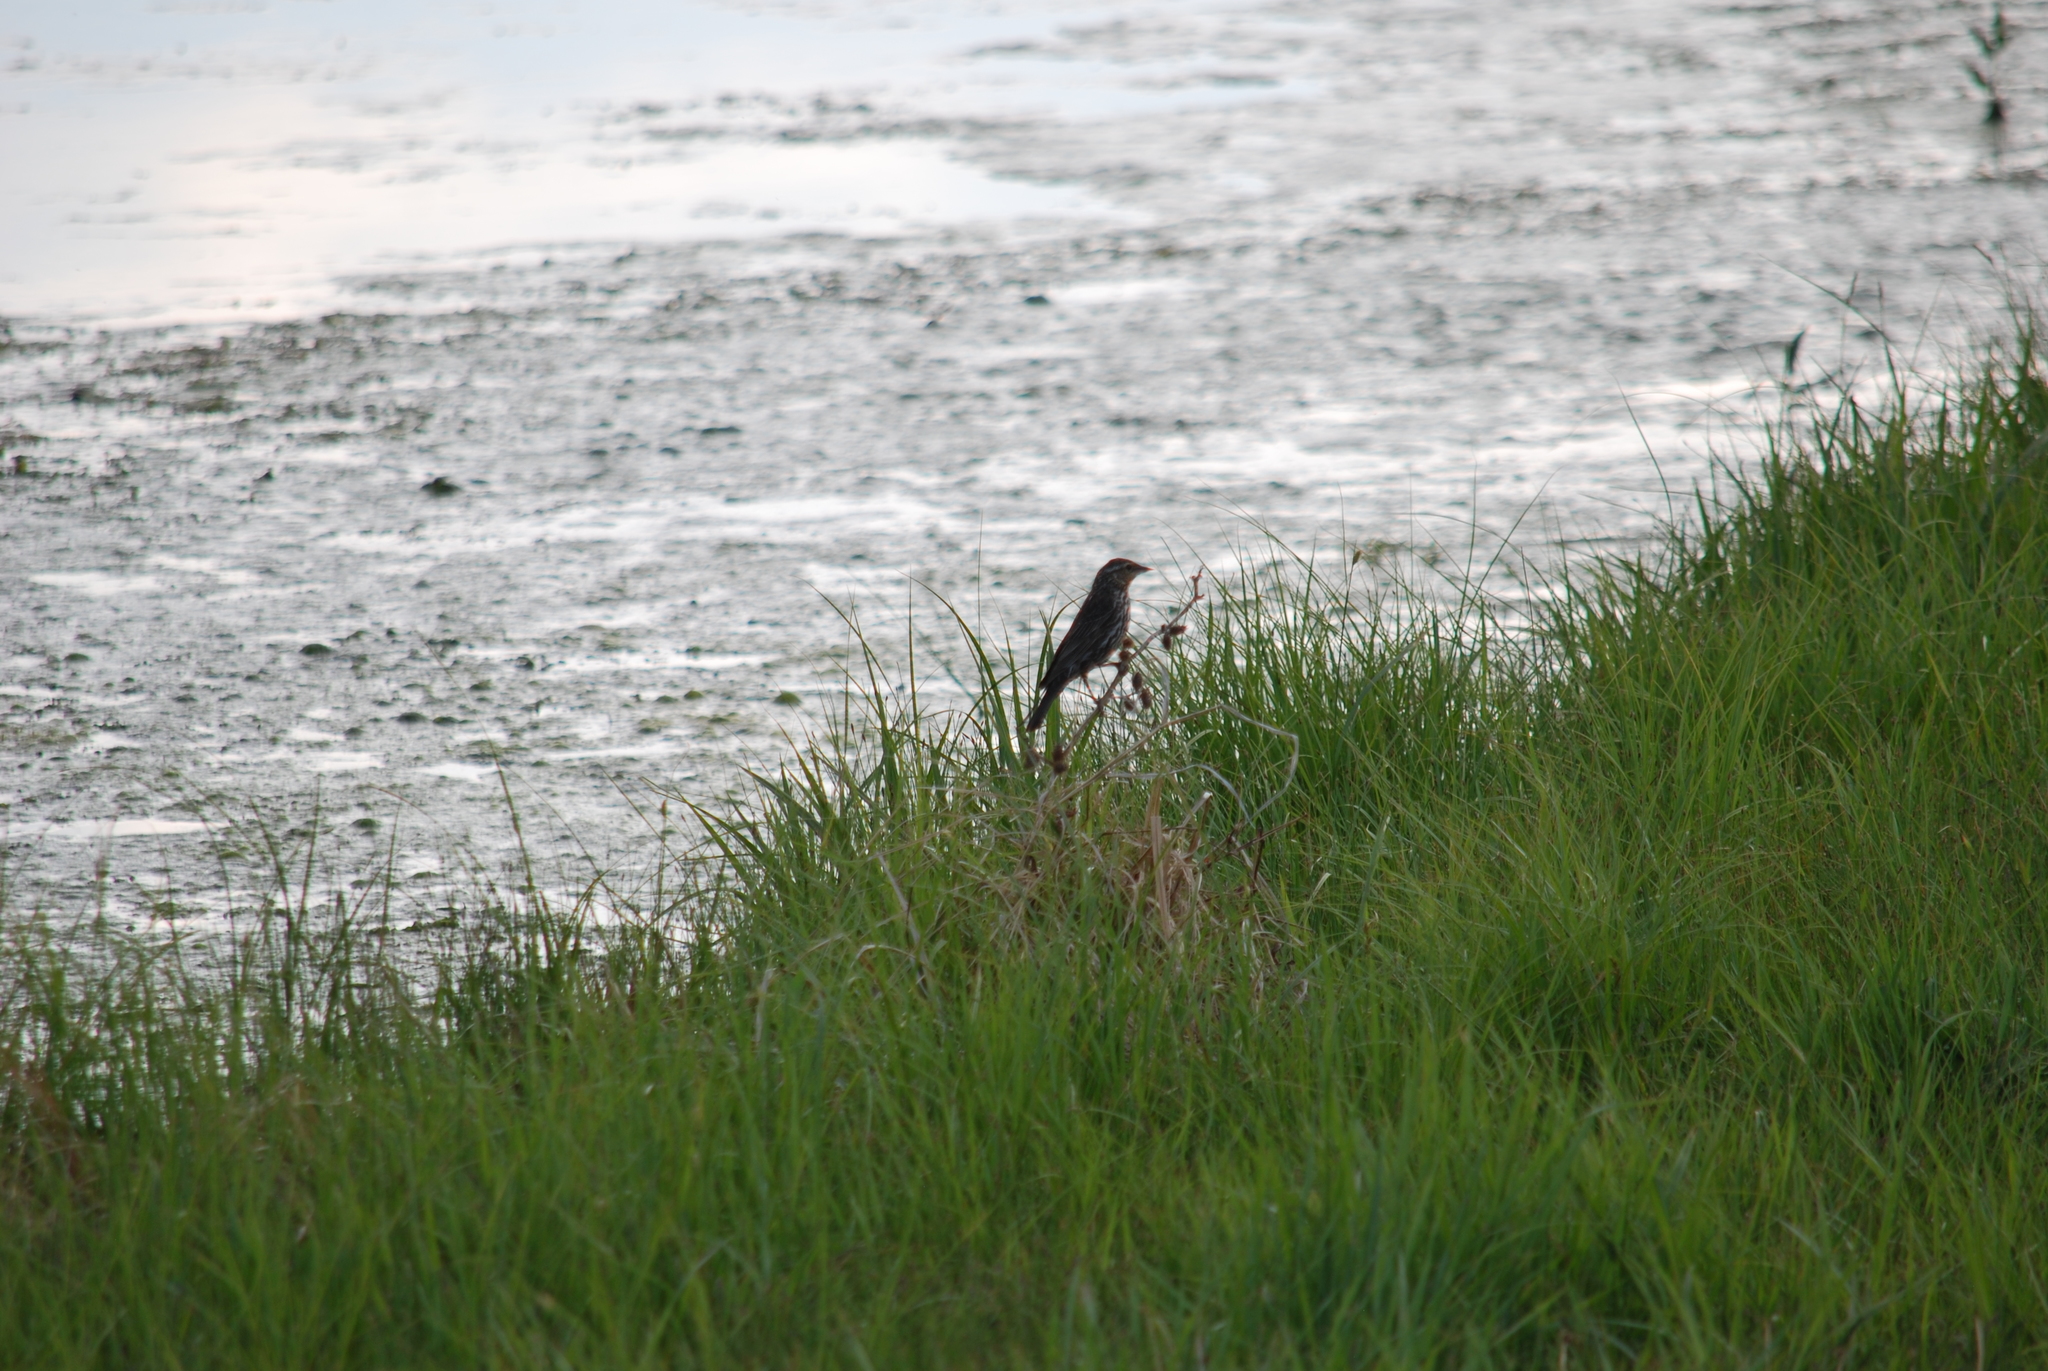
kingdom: Animalia
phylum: Chordata
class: Aves
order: Passeriformes
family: Icteridae
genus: Agelaius
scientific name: Agelaius phoeniceus
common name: Red-winged blackbird
